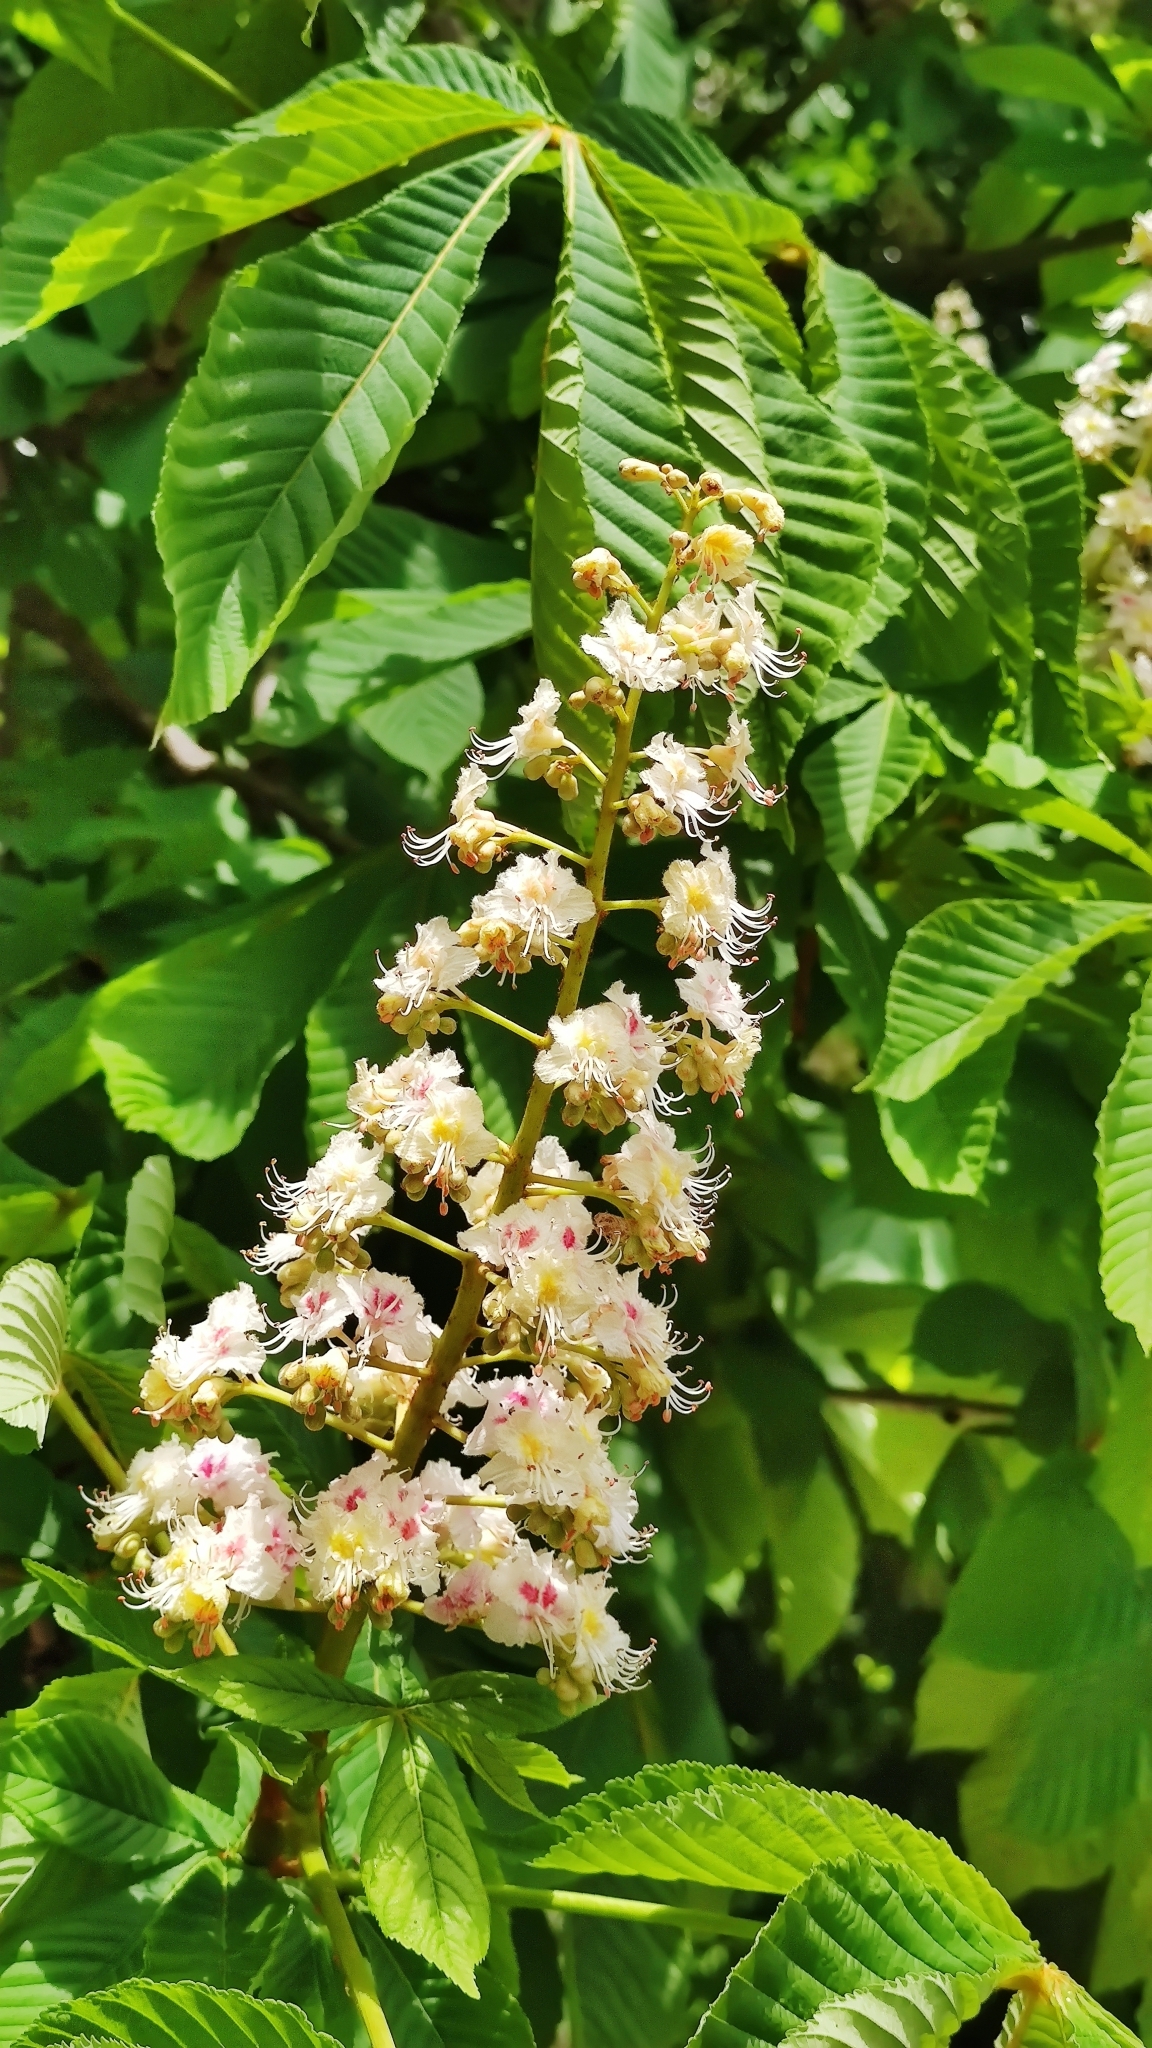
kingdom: Plantae
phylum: Tracheophyta
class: Magnoliopsida
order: Sapindales
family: Sapindaceae
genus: Aesculus
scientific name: Aesculus hippocastanum
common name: Horse-chestnut
